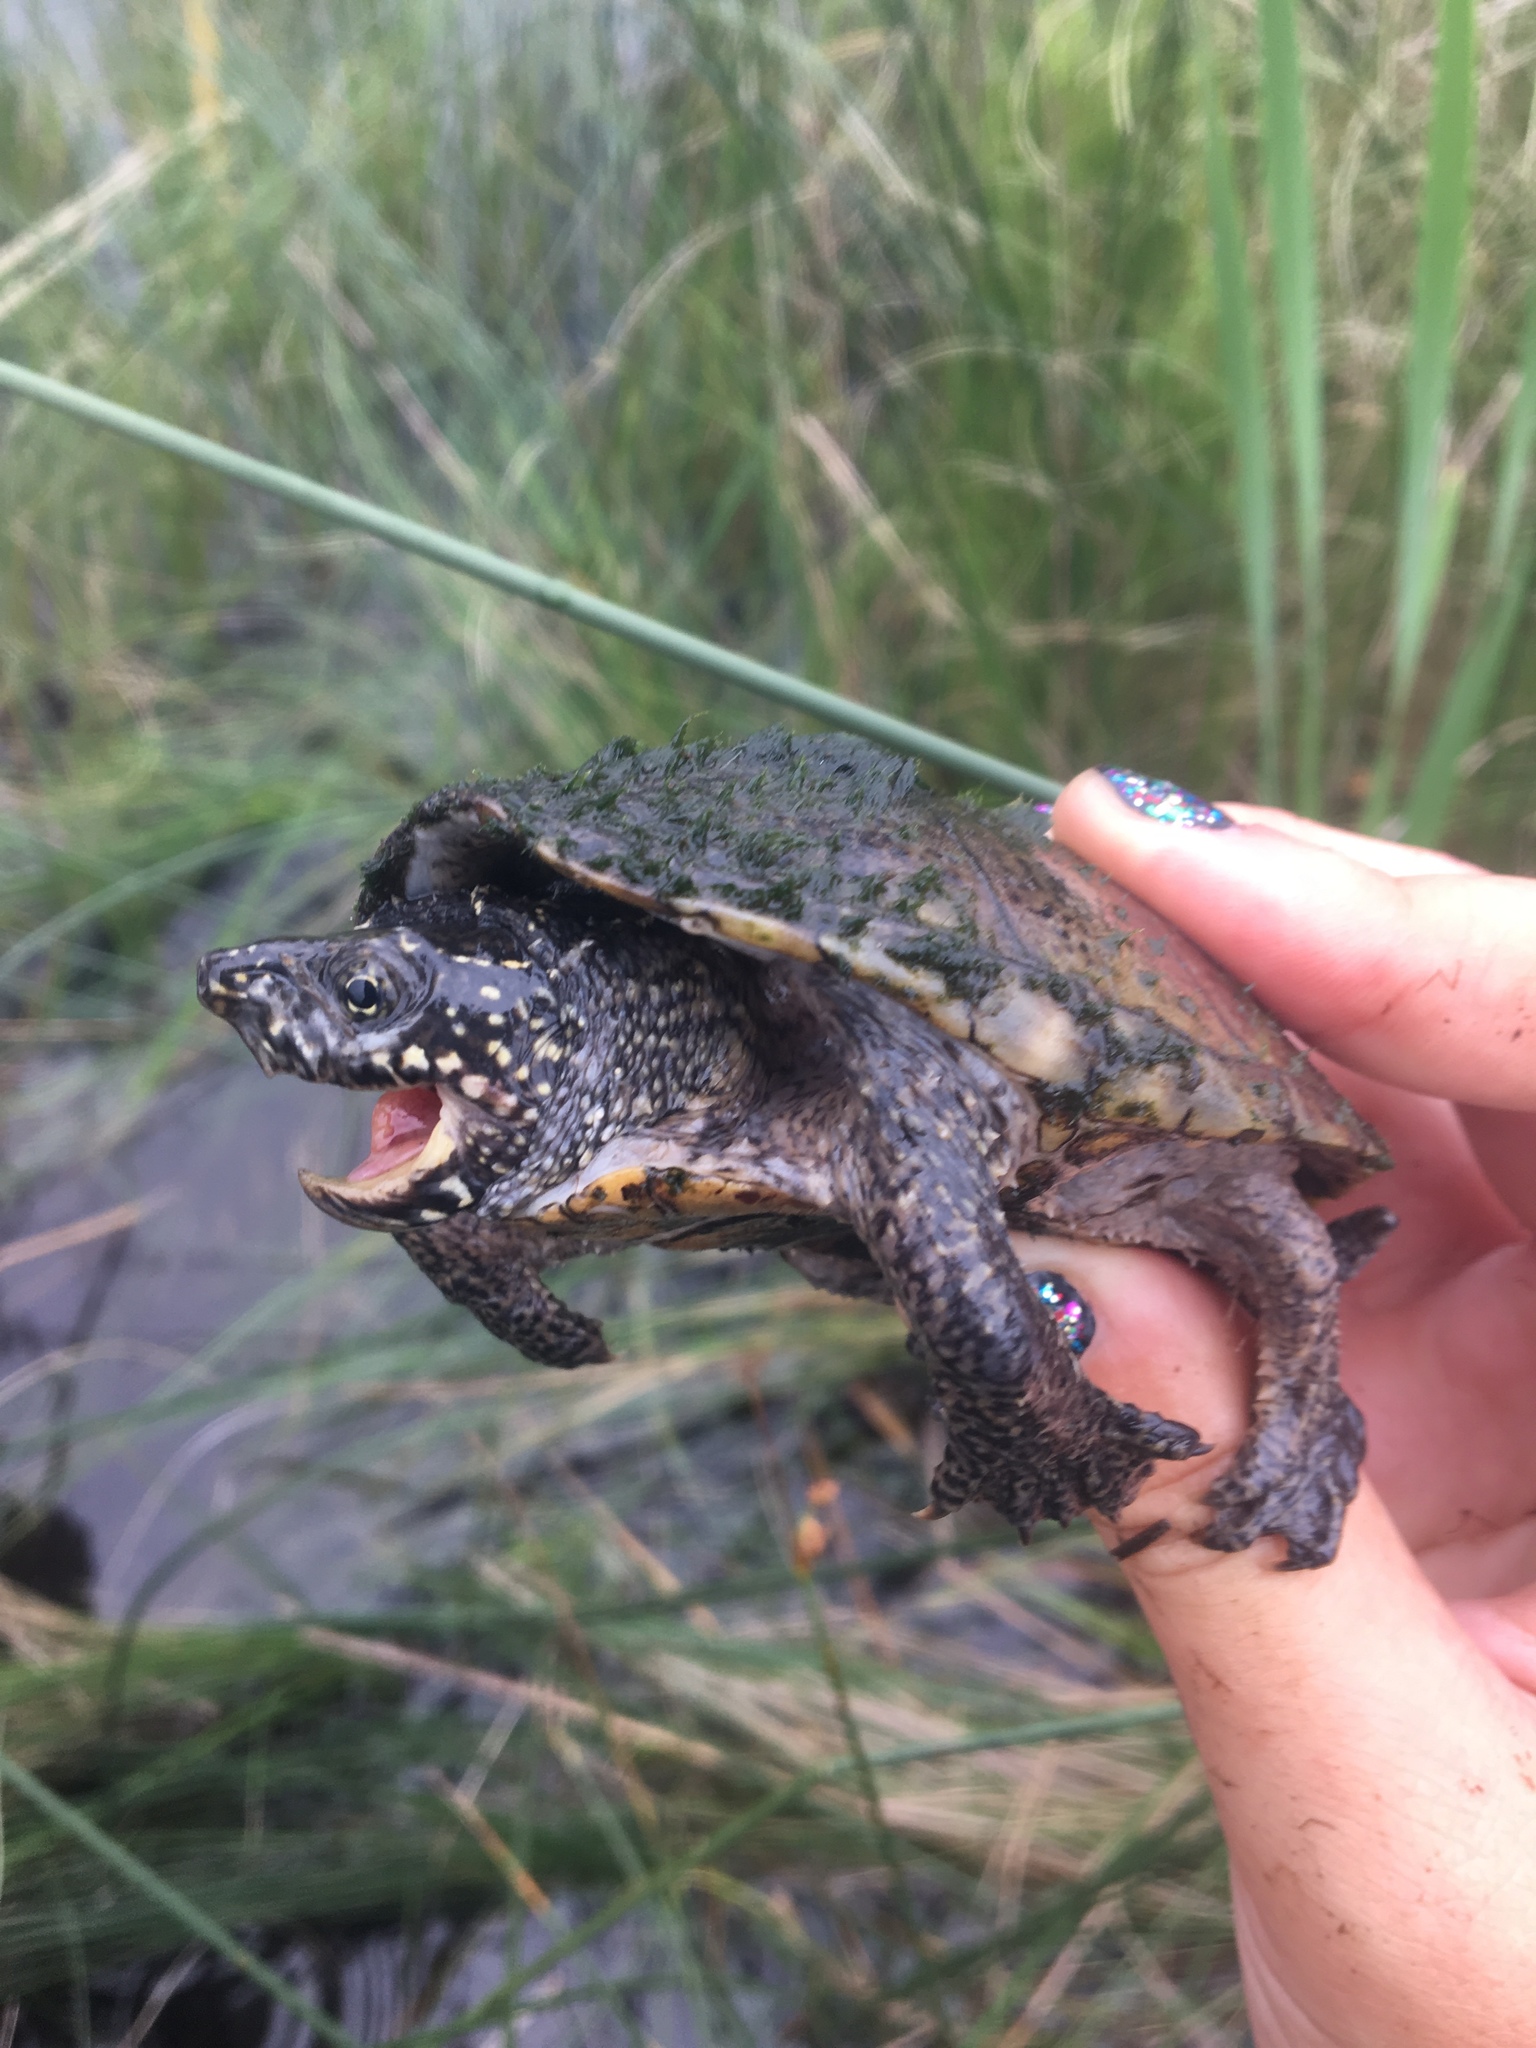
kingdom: Animalia
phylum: Chordata
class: Testudines
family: Kinosternidae
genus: Sternotherus
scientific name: Sternotherus odoratus
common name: Common musk turtle
